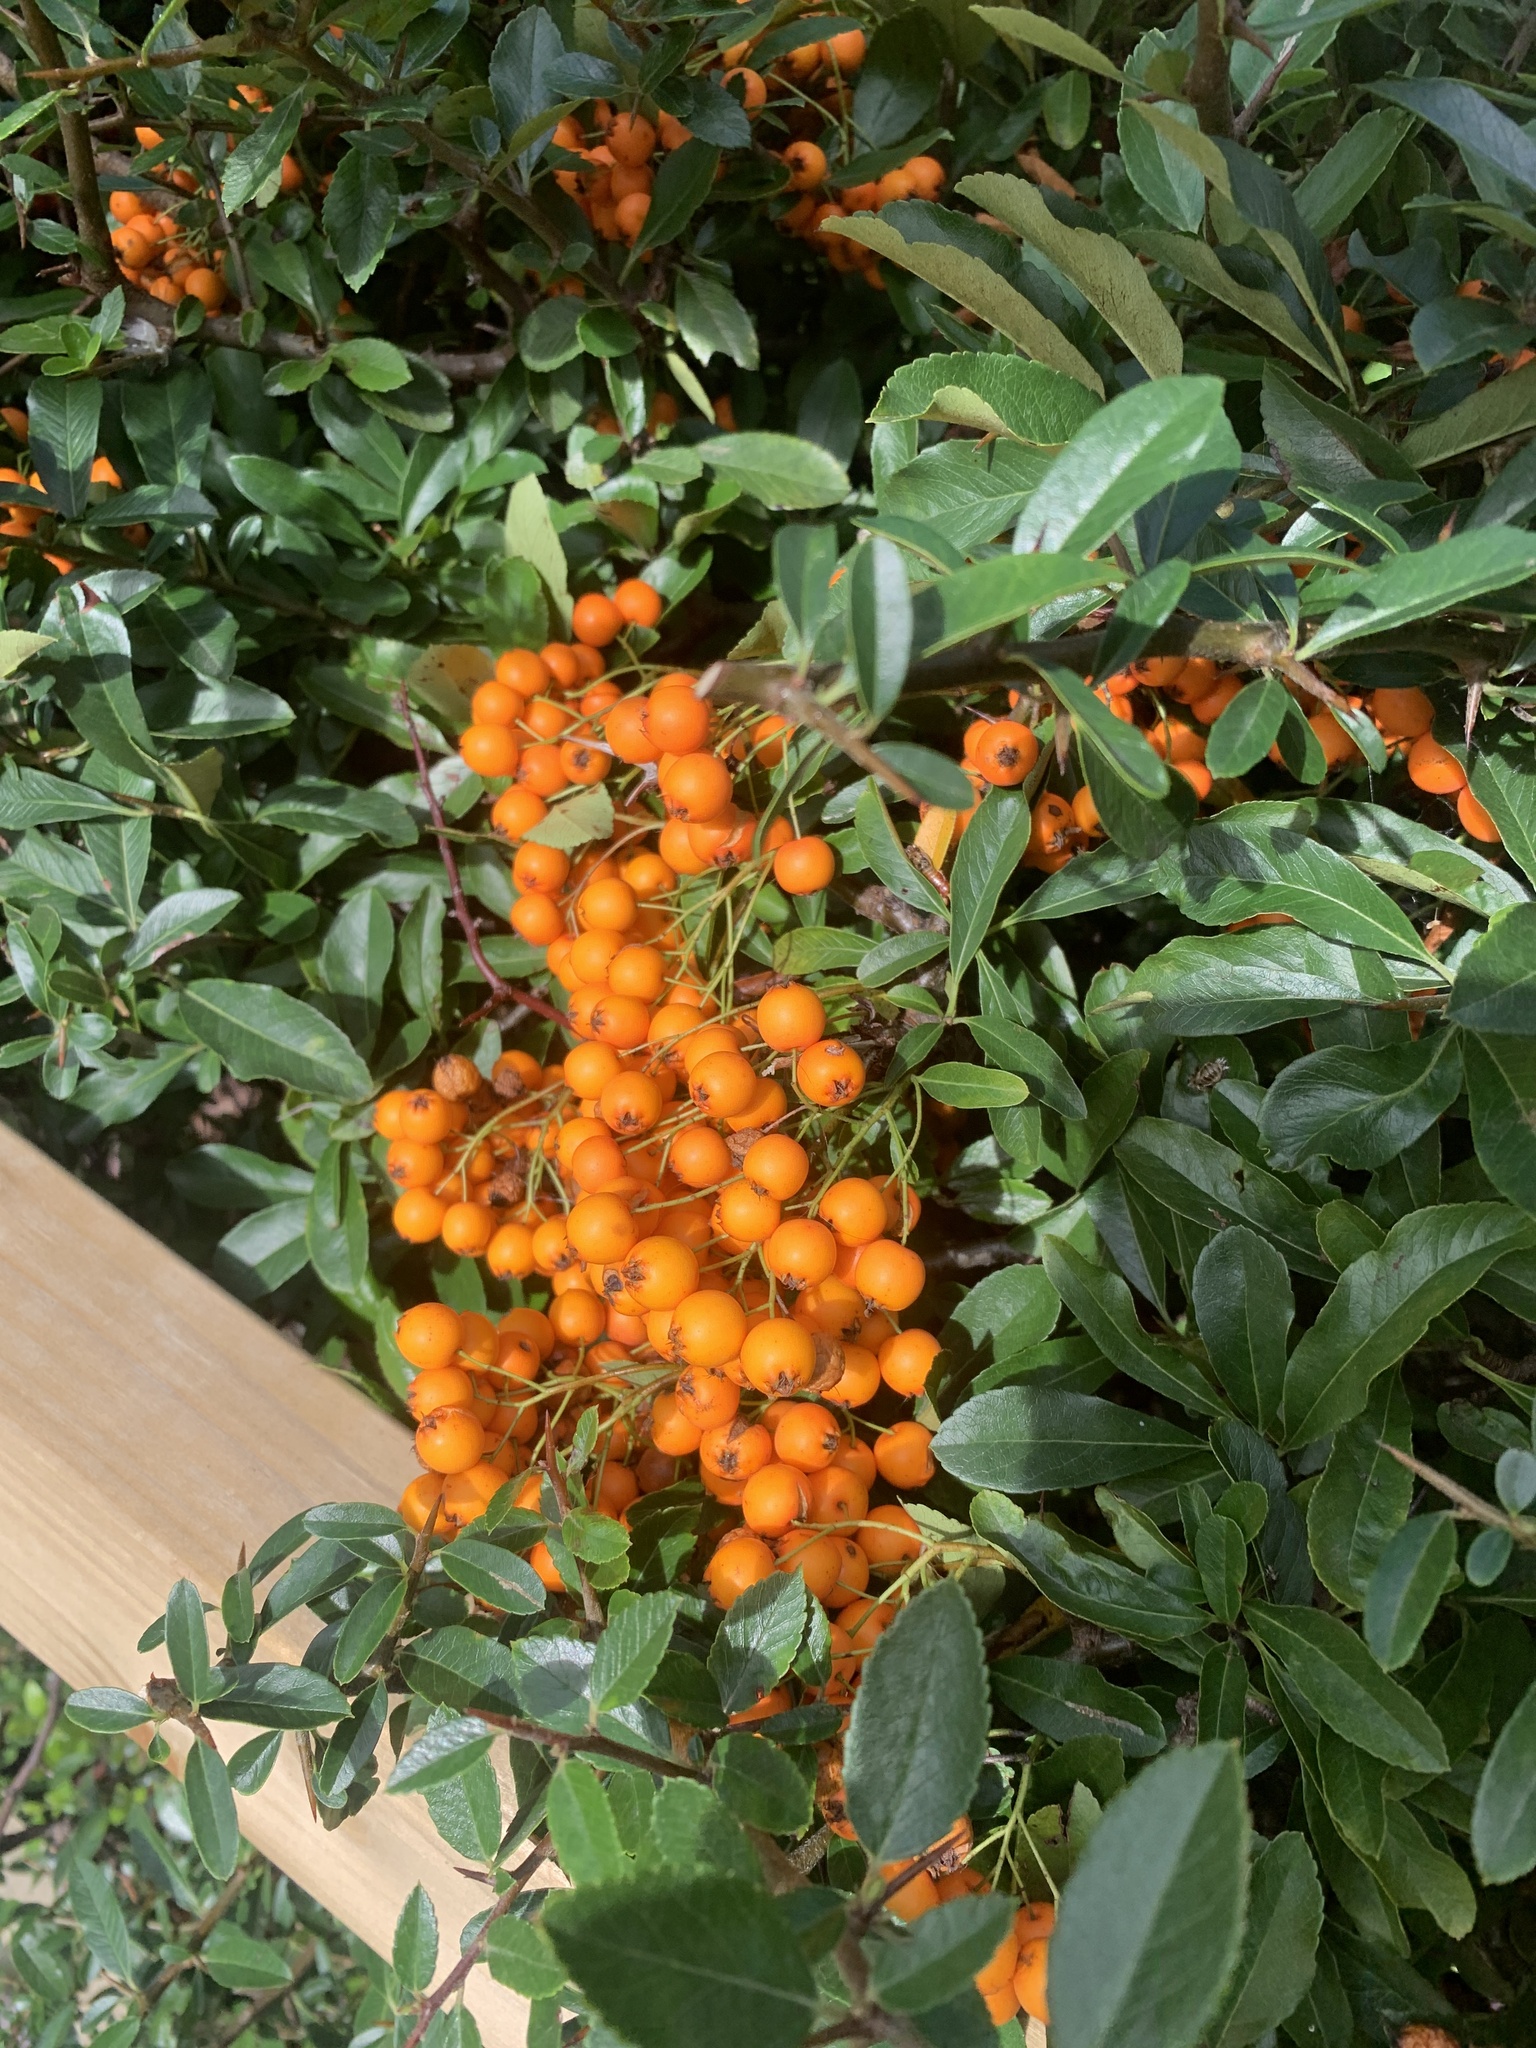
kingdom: Plantae
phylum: Tracheophyta
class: Magnoliopsida
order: Rosales
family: Rosaceae
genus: Pyracantha
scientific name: Pyracantha coccinea
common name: Firethorn
